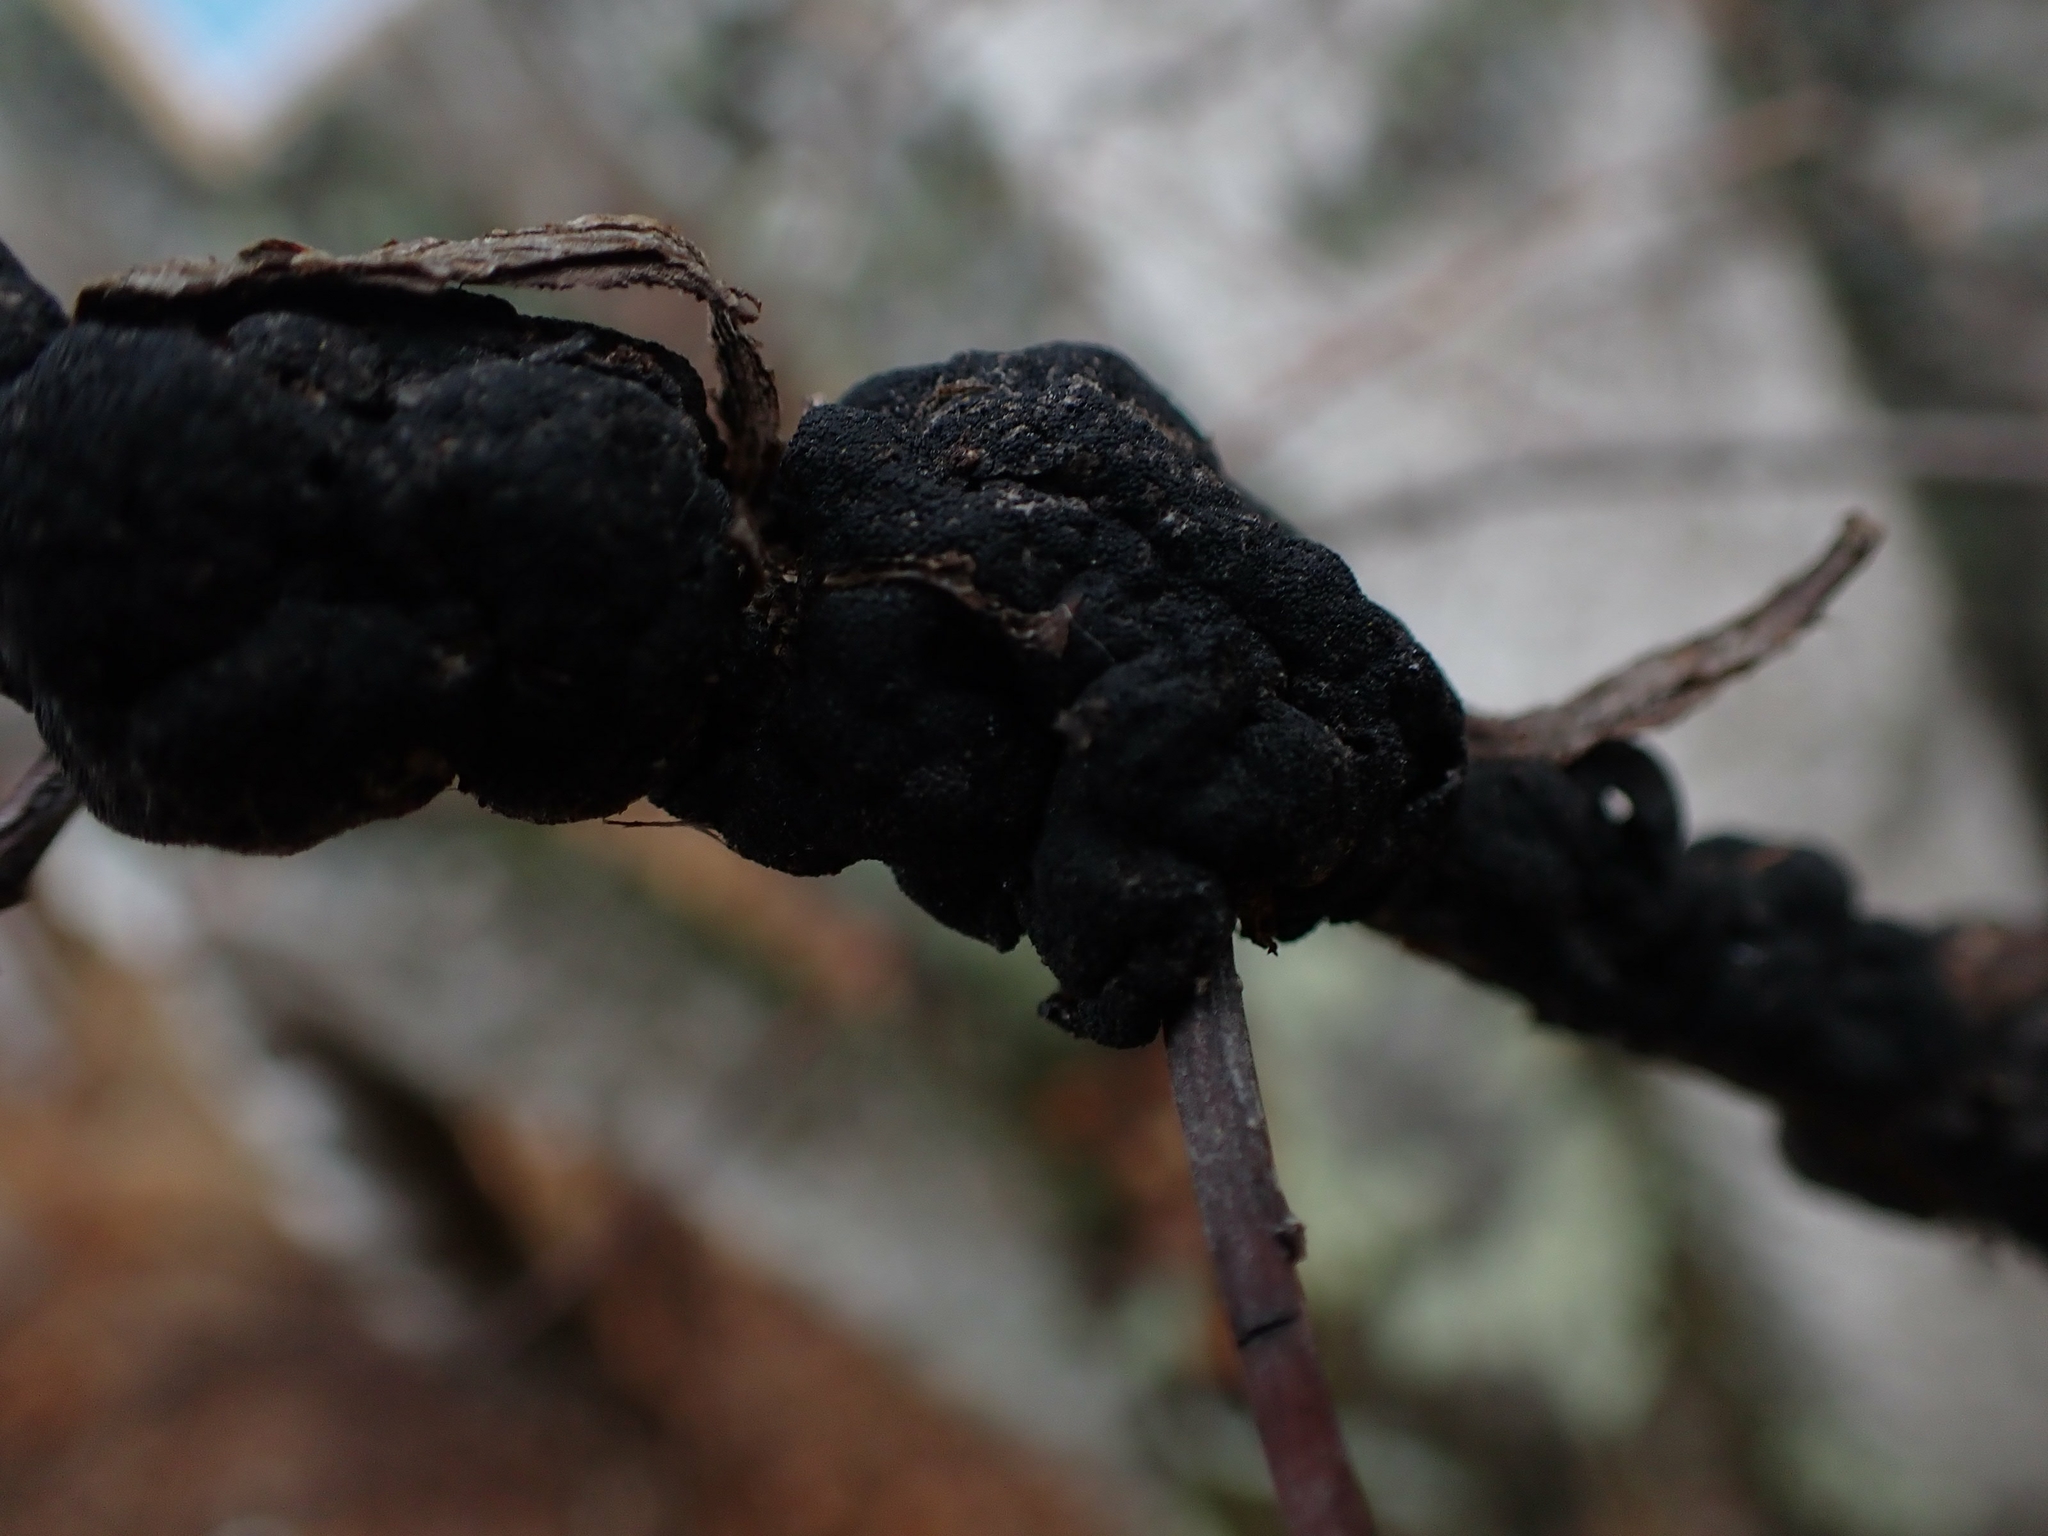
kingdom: Fungi
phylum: Ascomycota
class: Dothideomycetes
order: Venturiales
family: Venturiaceae
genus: Apiosporina
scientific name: Apiosporina morbosa
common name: Black knot
